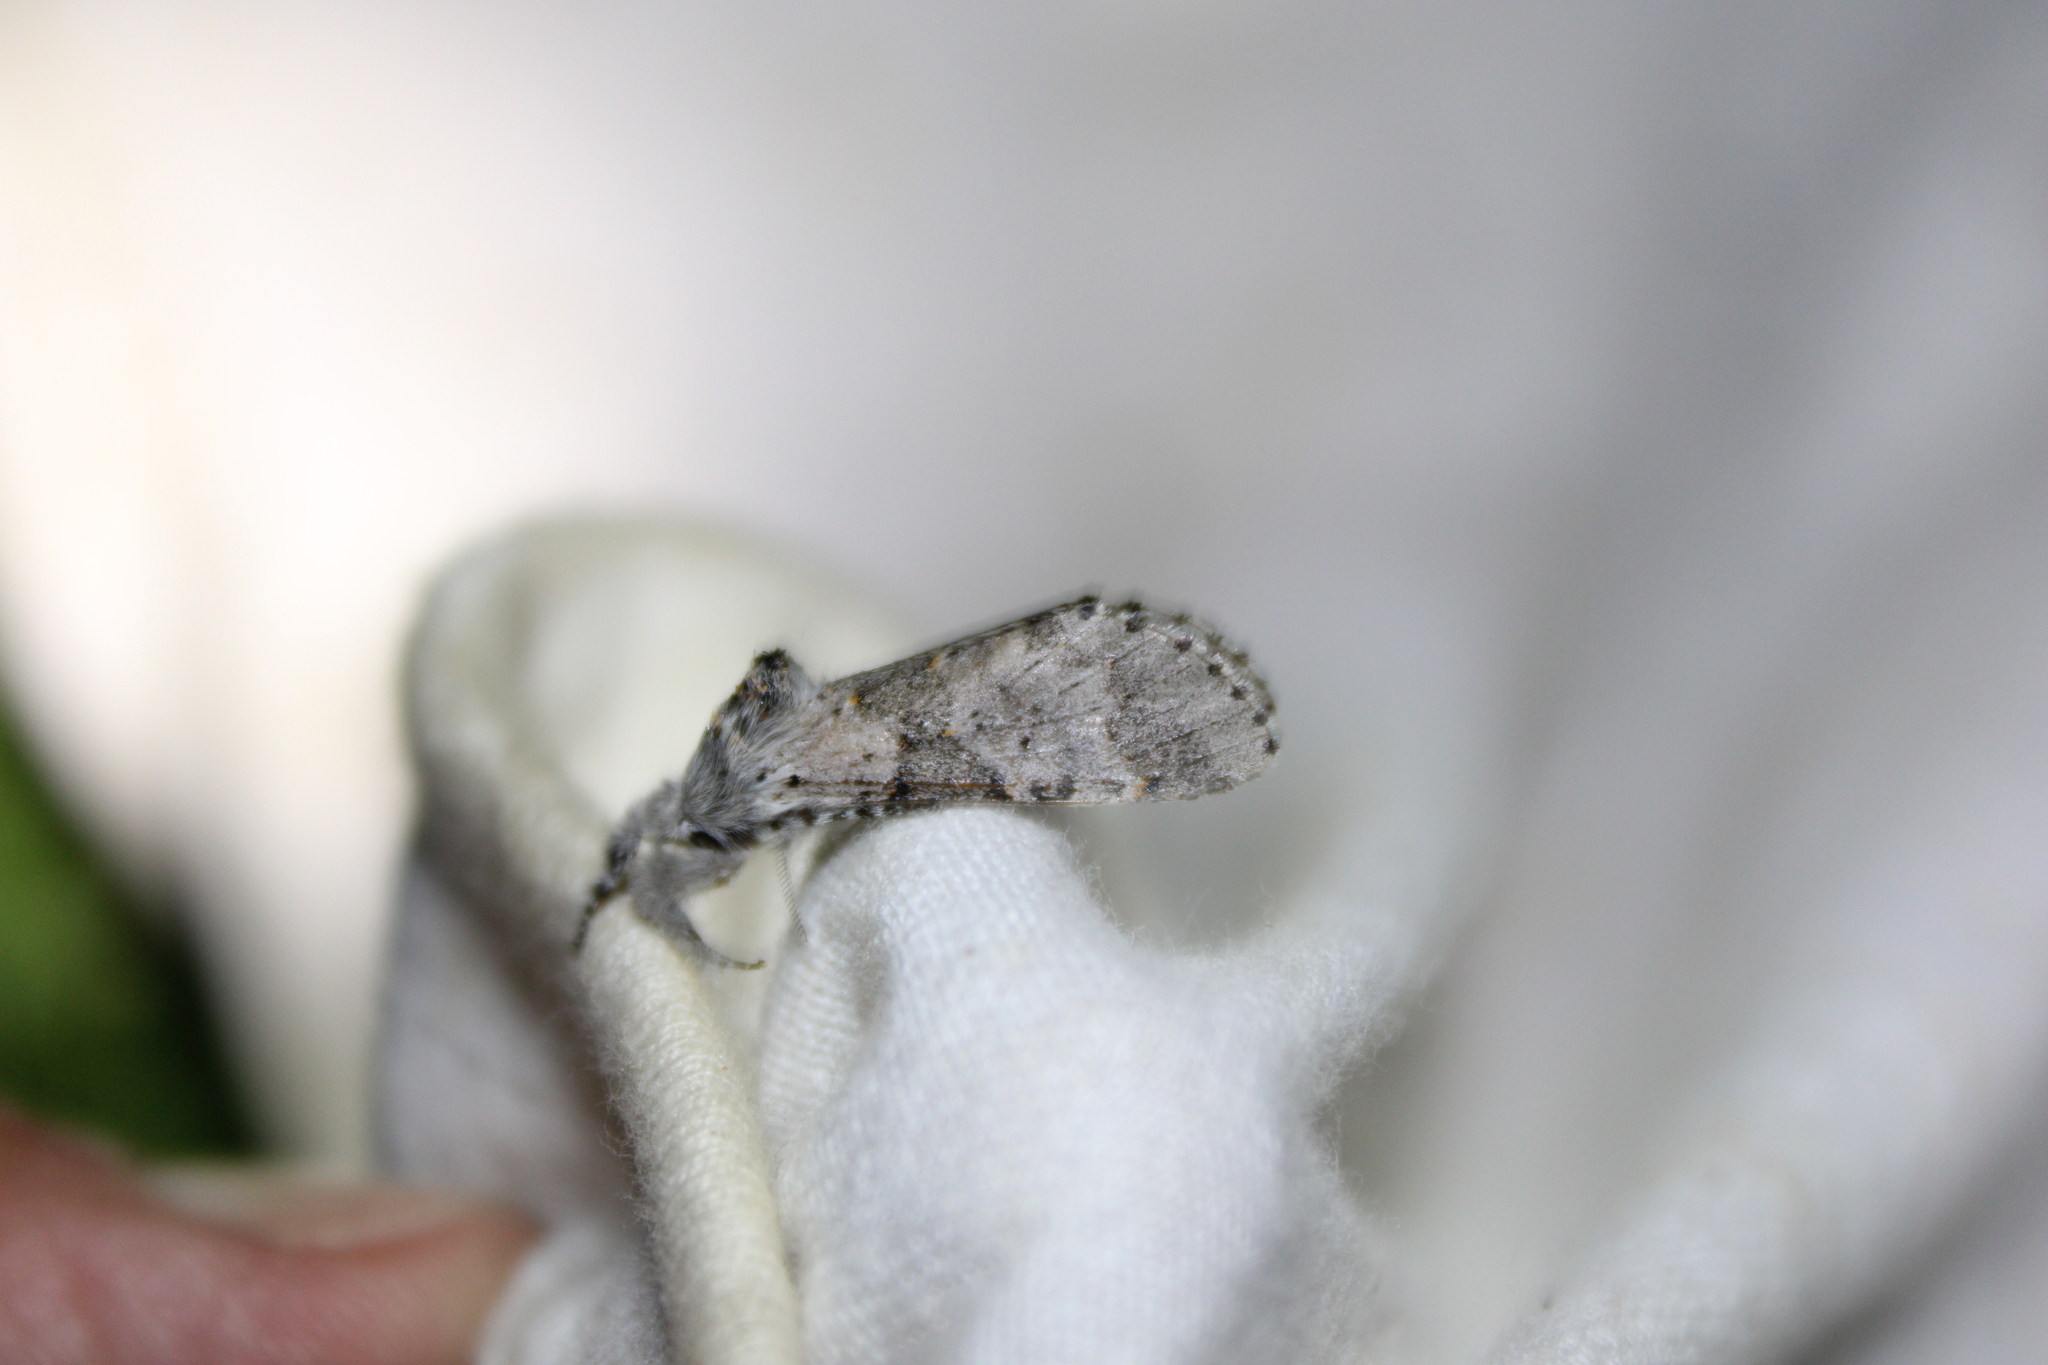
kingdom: Animalia
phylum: Arthropoda
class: Insecta
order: Lepidoptera
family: Notodontidae
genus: Furcula
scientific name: Furcula cinerea
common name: Gray furcula
